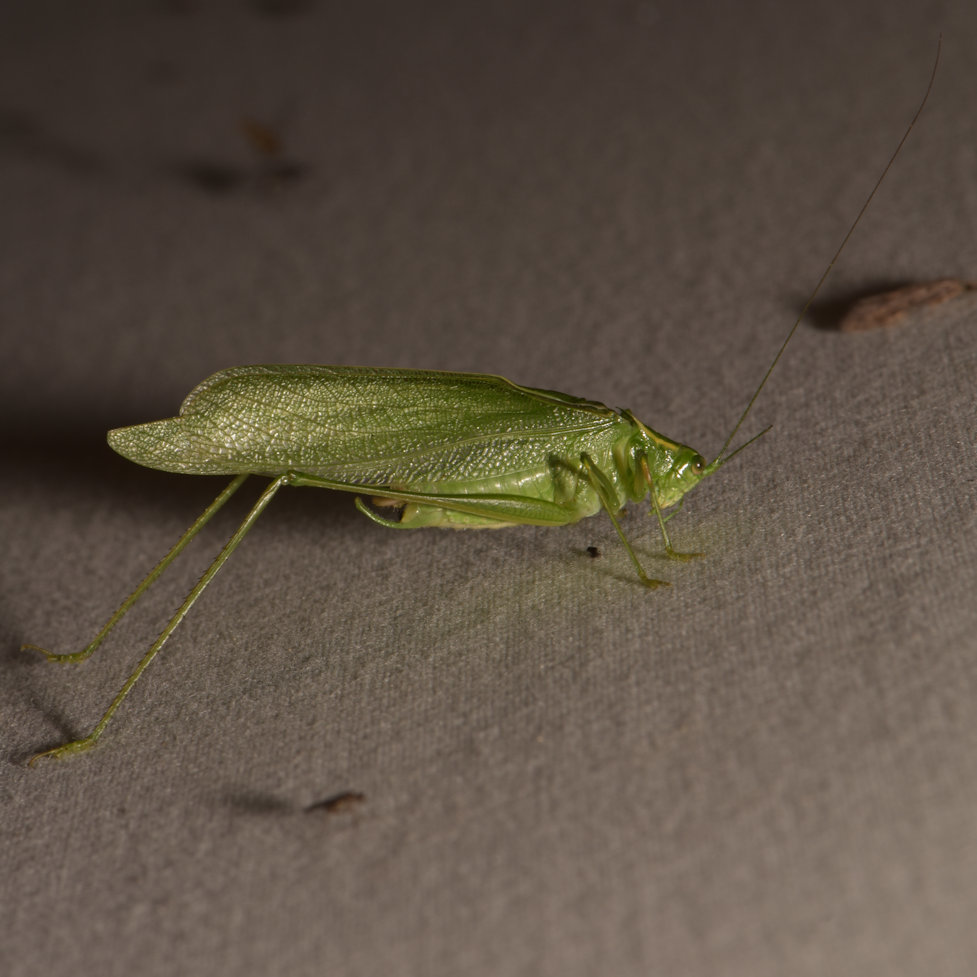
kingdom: Animalia
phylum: Arthropoda
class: Insecta
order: Orthoptera
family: Tettigoniidae
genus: Scudderia
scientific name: Scudderia septentrionalis
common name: Northern bush-katydid
